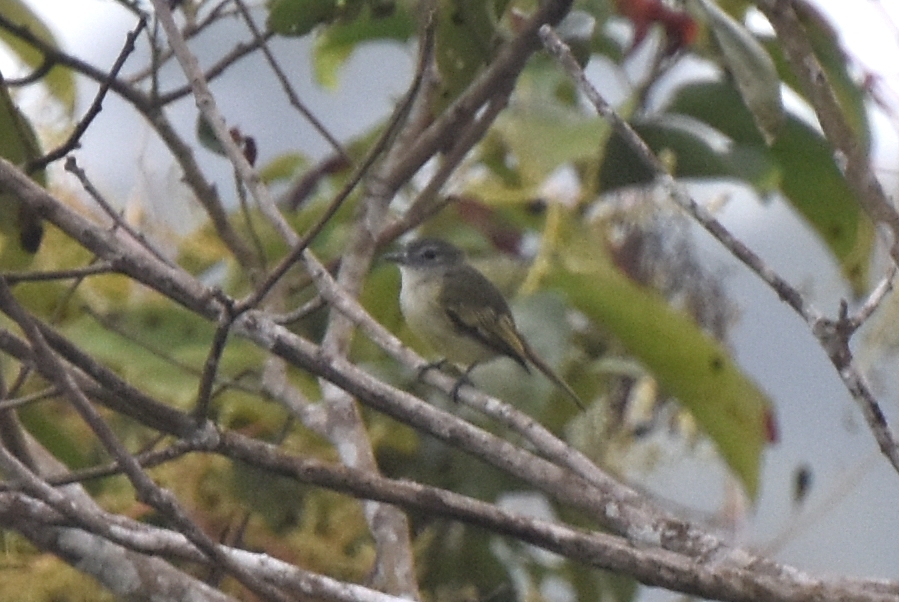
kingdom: Animalia
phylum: Chordata
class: Aves
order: Passeriformes
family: Tyrannidae
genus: Zimmerius
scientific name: Zimmerius vilissimus
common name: Paltry tyrannulet
